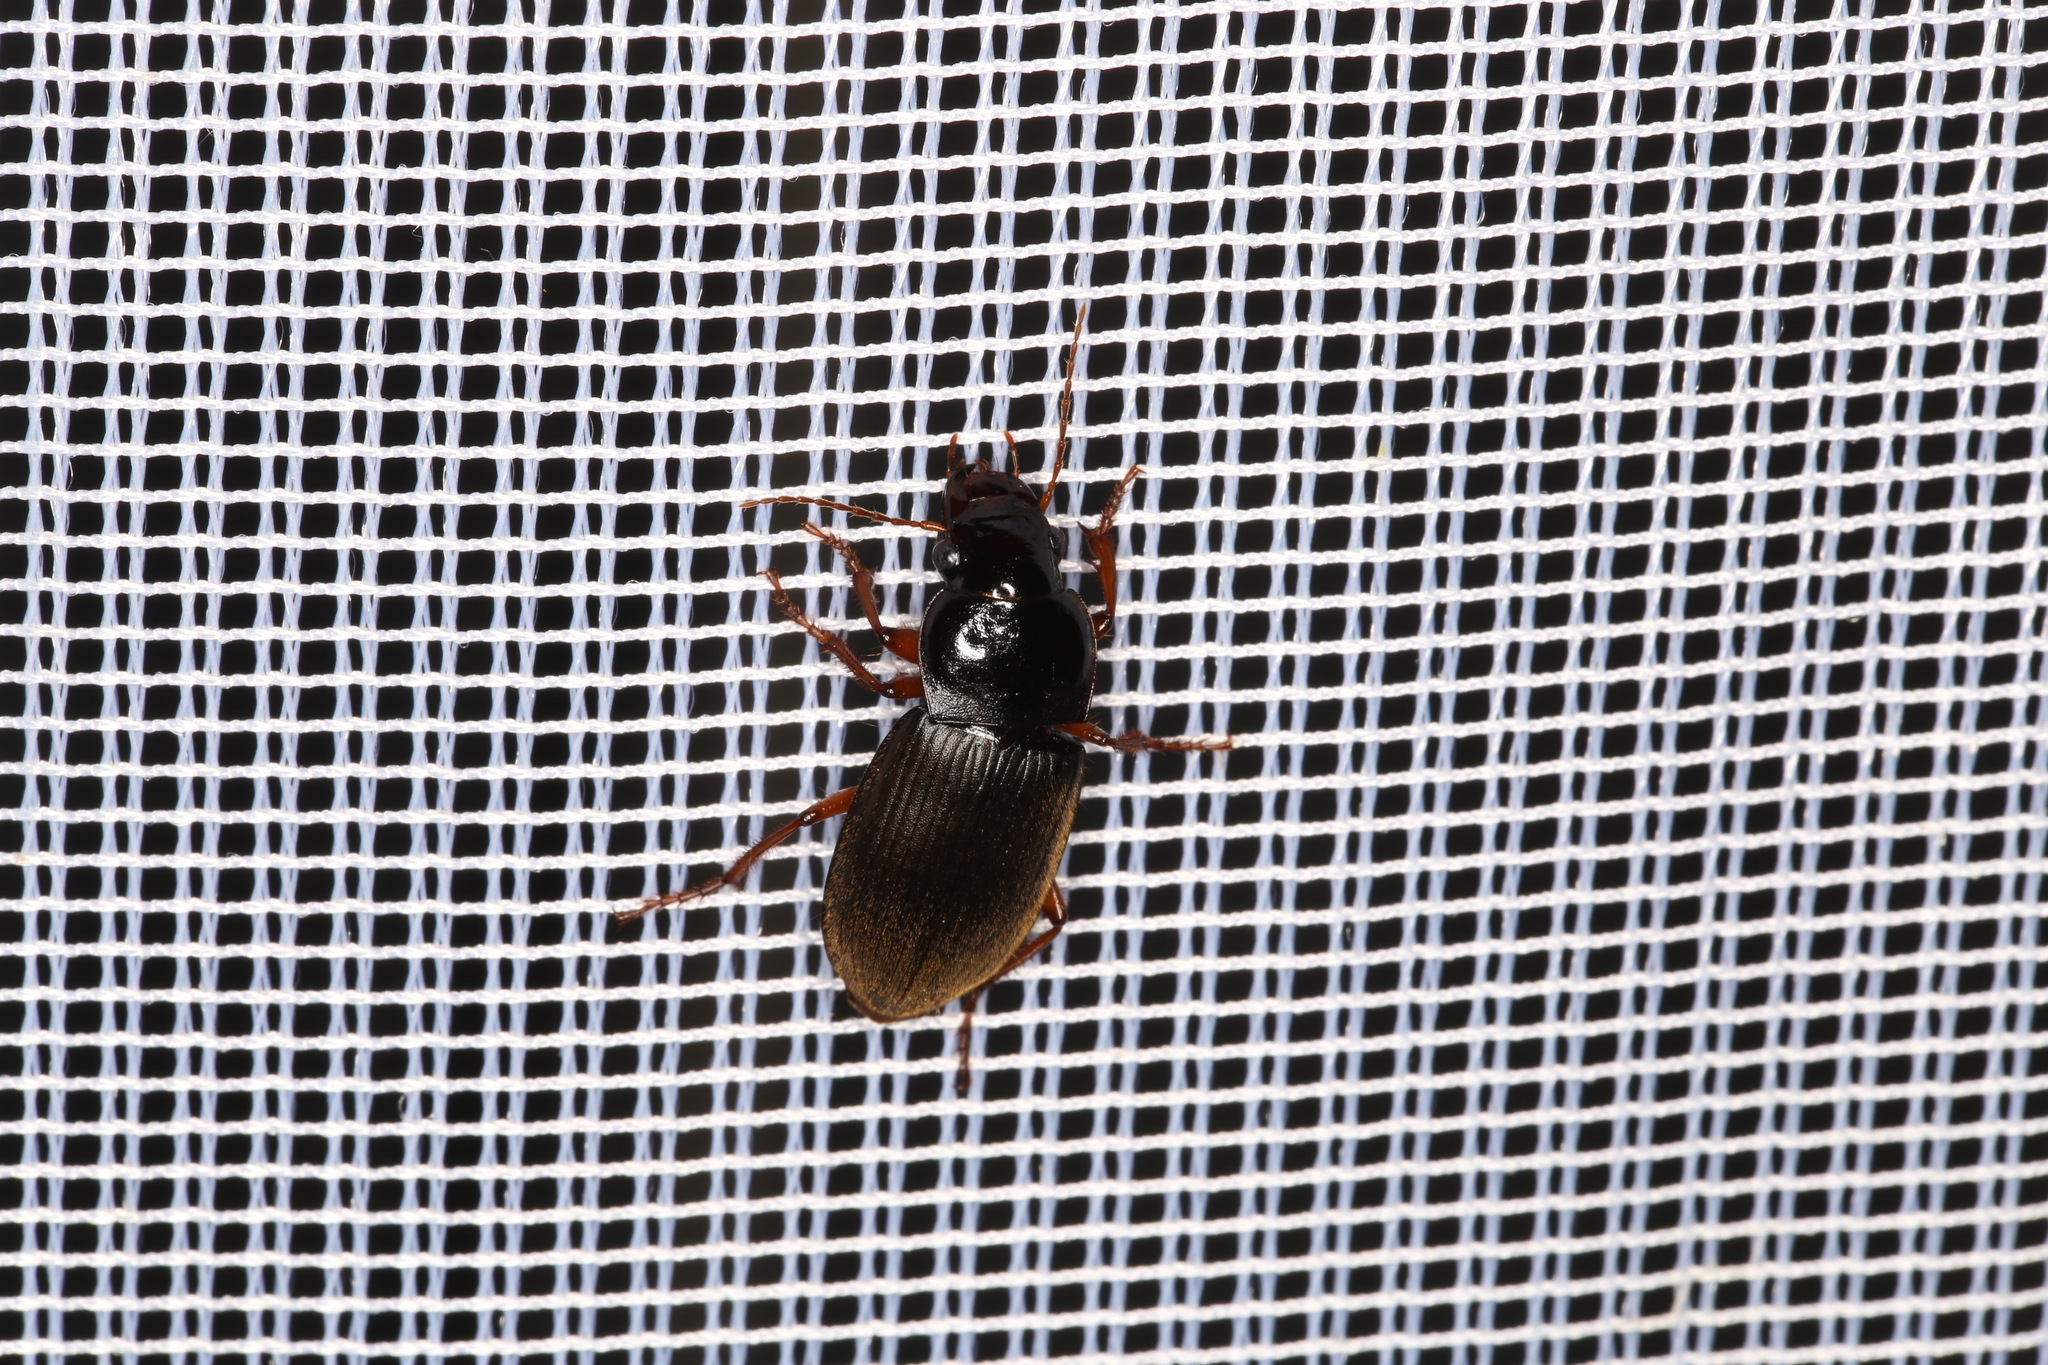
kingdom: Animalia
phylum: Arthropoda
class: Insecta
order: Coleoptera
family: Carabidae
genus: Harpalus
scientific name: Harpalus rufipes
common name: Strawberry harp ground beetle
